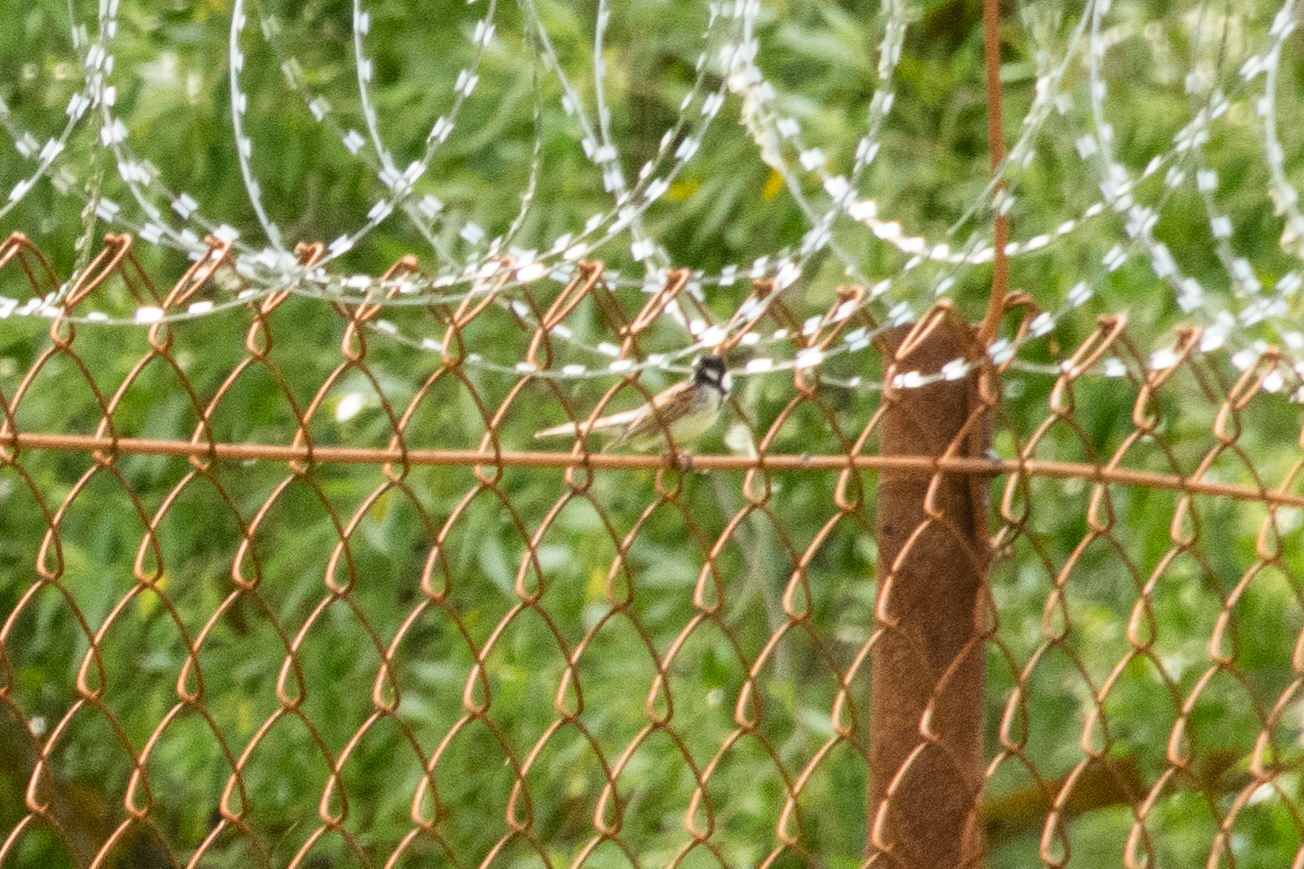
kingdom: Animalia
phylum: Chordata
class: Aves
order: Passeriformes
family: Emberizidae
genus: Emberiza
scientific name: Emberiza schoeniclus
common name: Reed bunting
